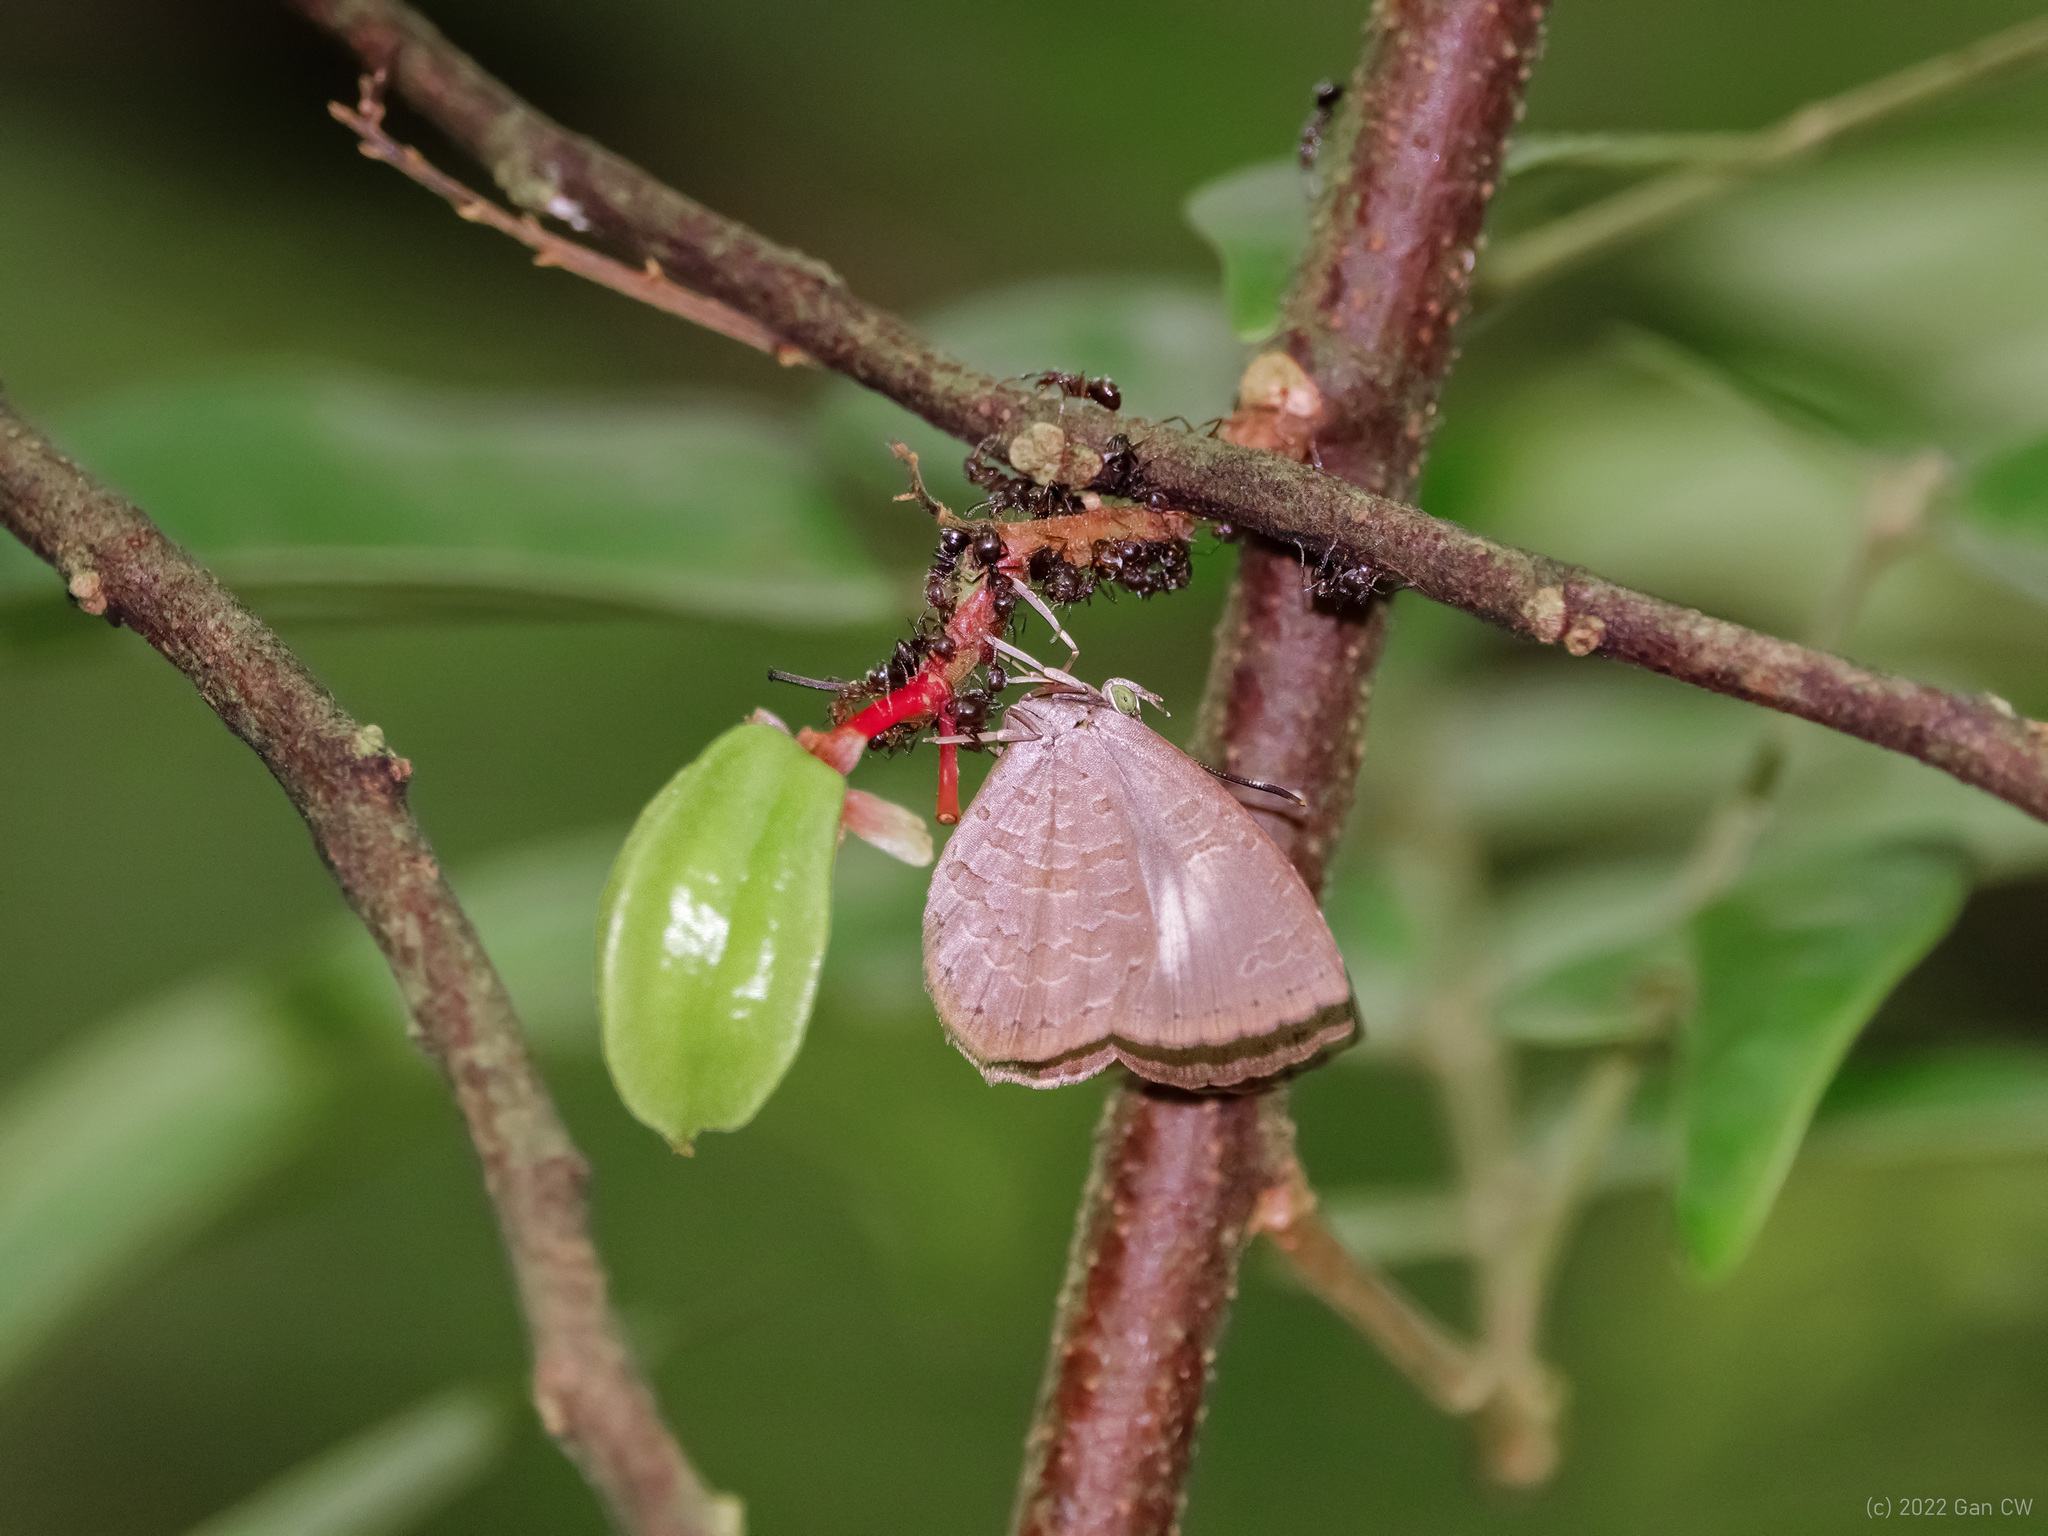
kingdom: Animalia
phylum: Arthropoda
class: Insecta
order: Lepidoptera
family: Lycaenidae
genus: Miletus
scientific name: Miletus biggsii
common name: Bigg's brownie
